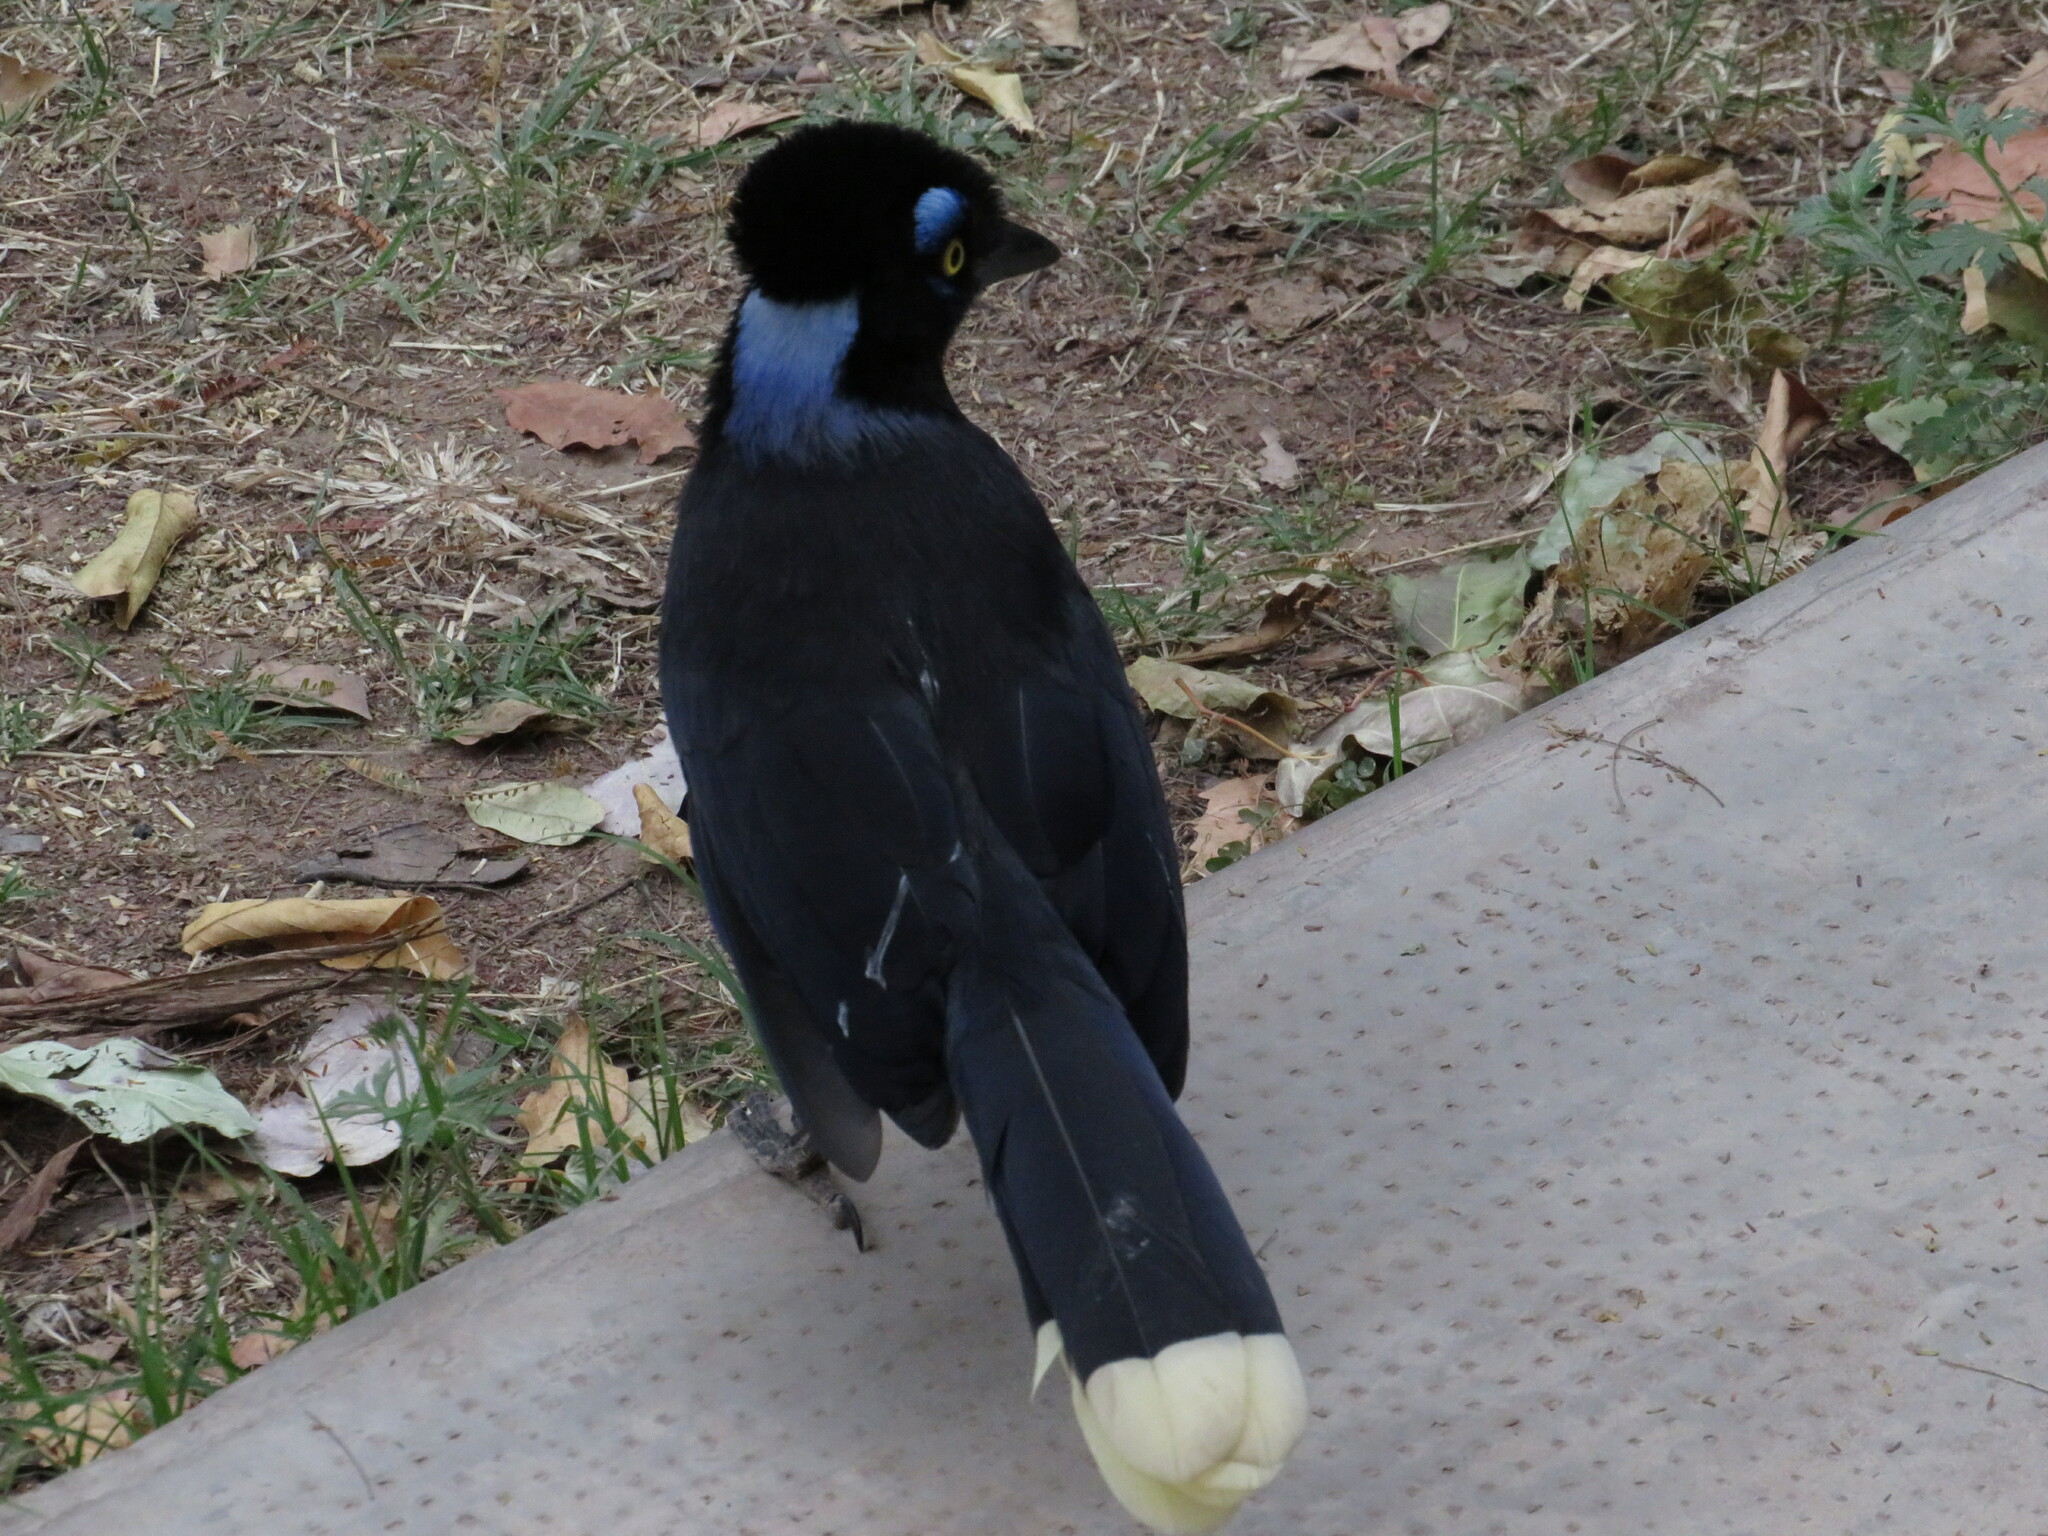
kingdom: Animalia
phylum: Chordata
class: Aves
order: Passeriformes
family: Corvidae
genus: Cyanocorax
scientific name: Cyanocorax chrysops
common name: Plush-crested jay
